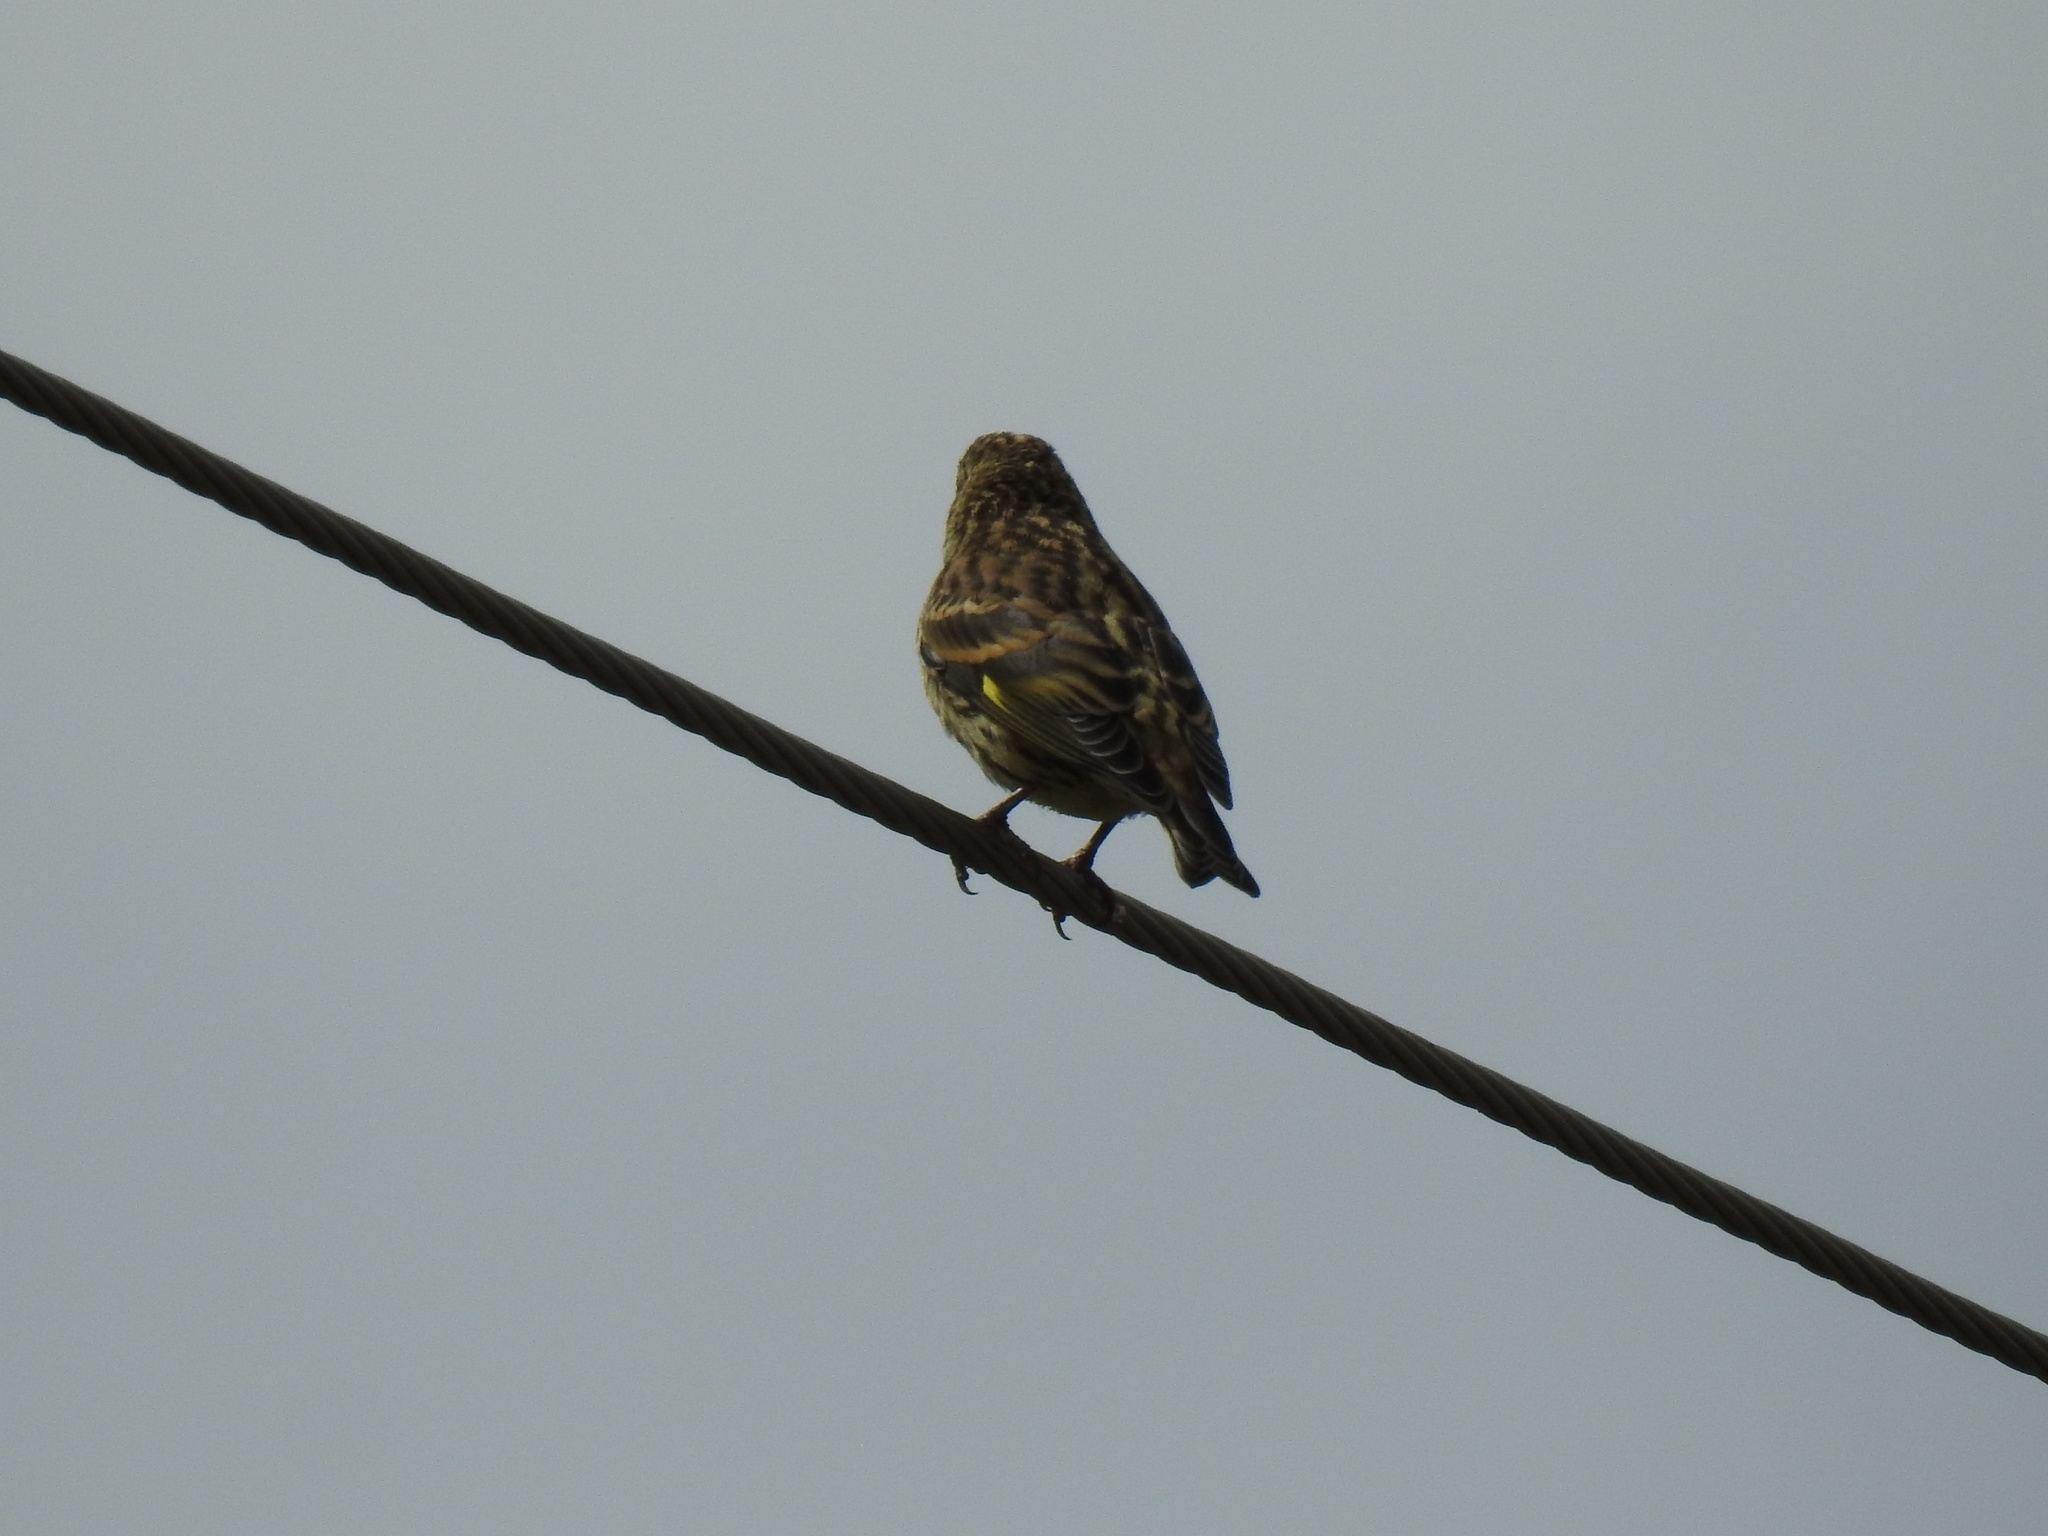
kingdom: Animalia
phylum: Chordata
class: Aves
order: Passeriformes
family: Fringillidae
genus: Spinus
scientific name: Spinus pinus
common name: Pine siskin
